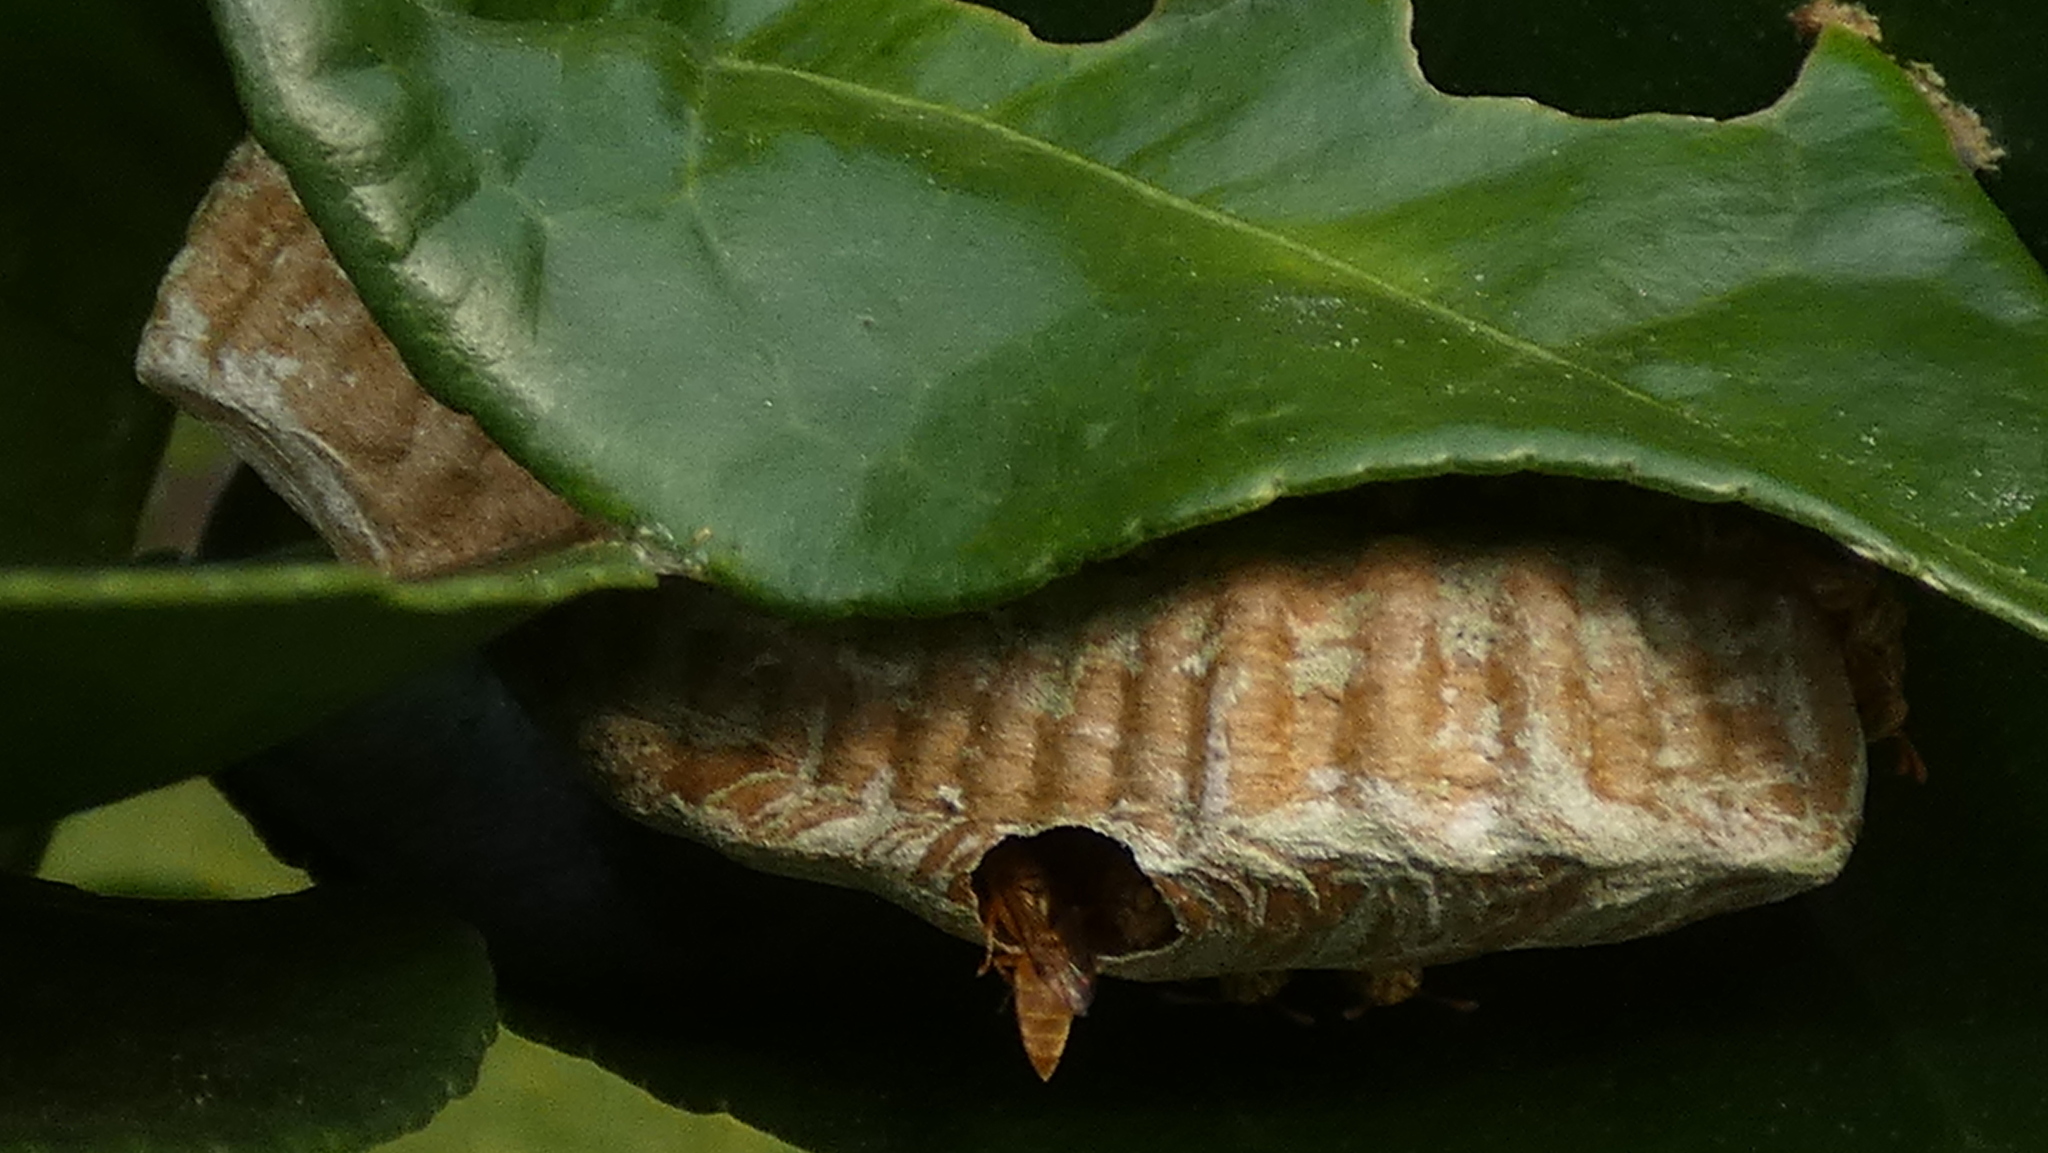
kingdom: Animalia
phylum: Arthropoda
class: Insecta
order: Hymenoptera
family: Vespidae
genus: Protopolybia
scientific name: Protopolybia potiguara
